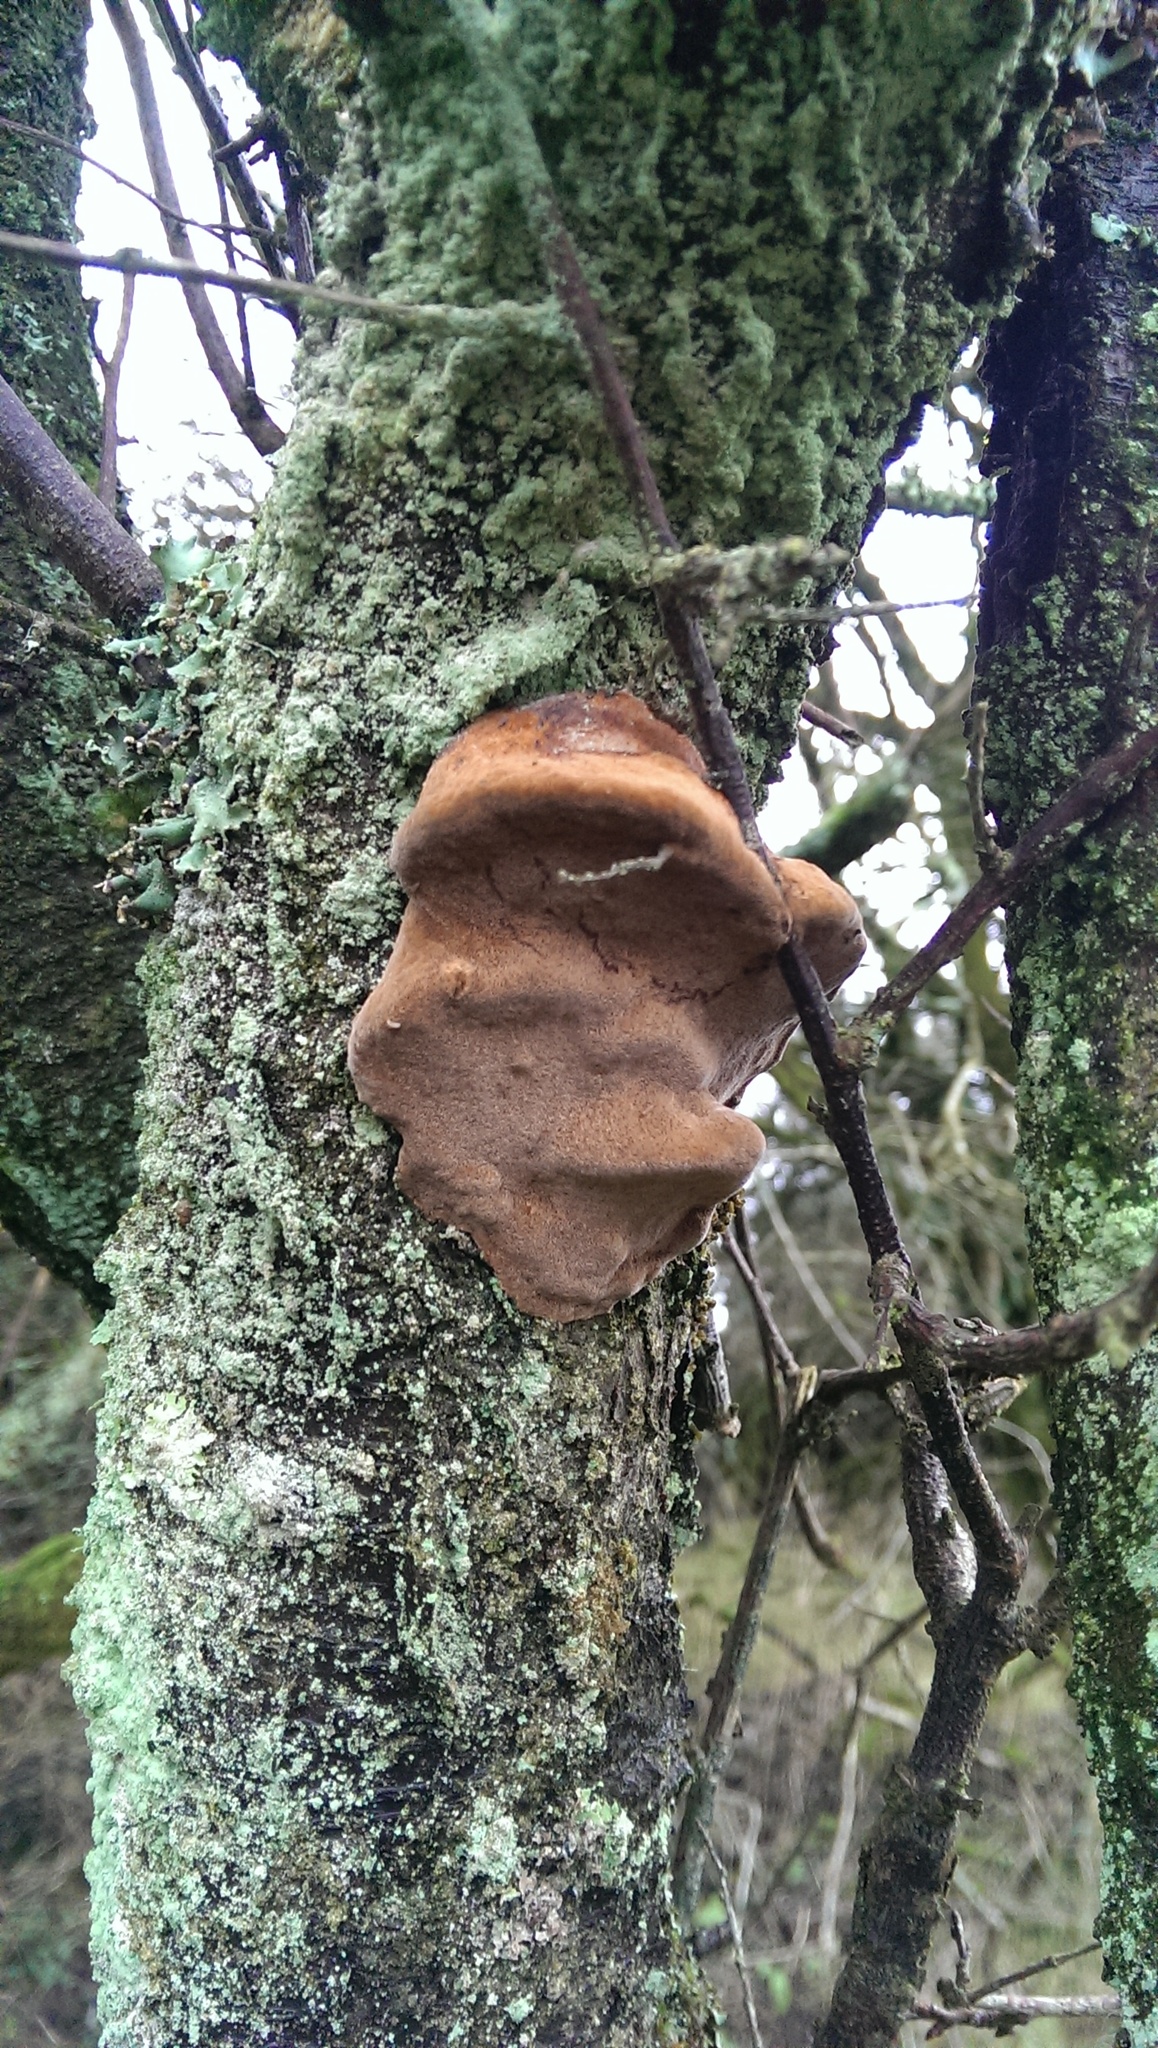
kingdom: Fungi
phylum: Basidiomycota
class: Agaricomycetes
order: Hymenochaetales
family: Hymenochaetaceae
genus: Phellinus
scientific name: Phellinus pomaceus
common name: Cushion bracket
